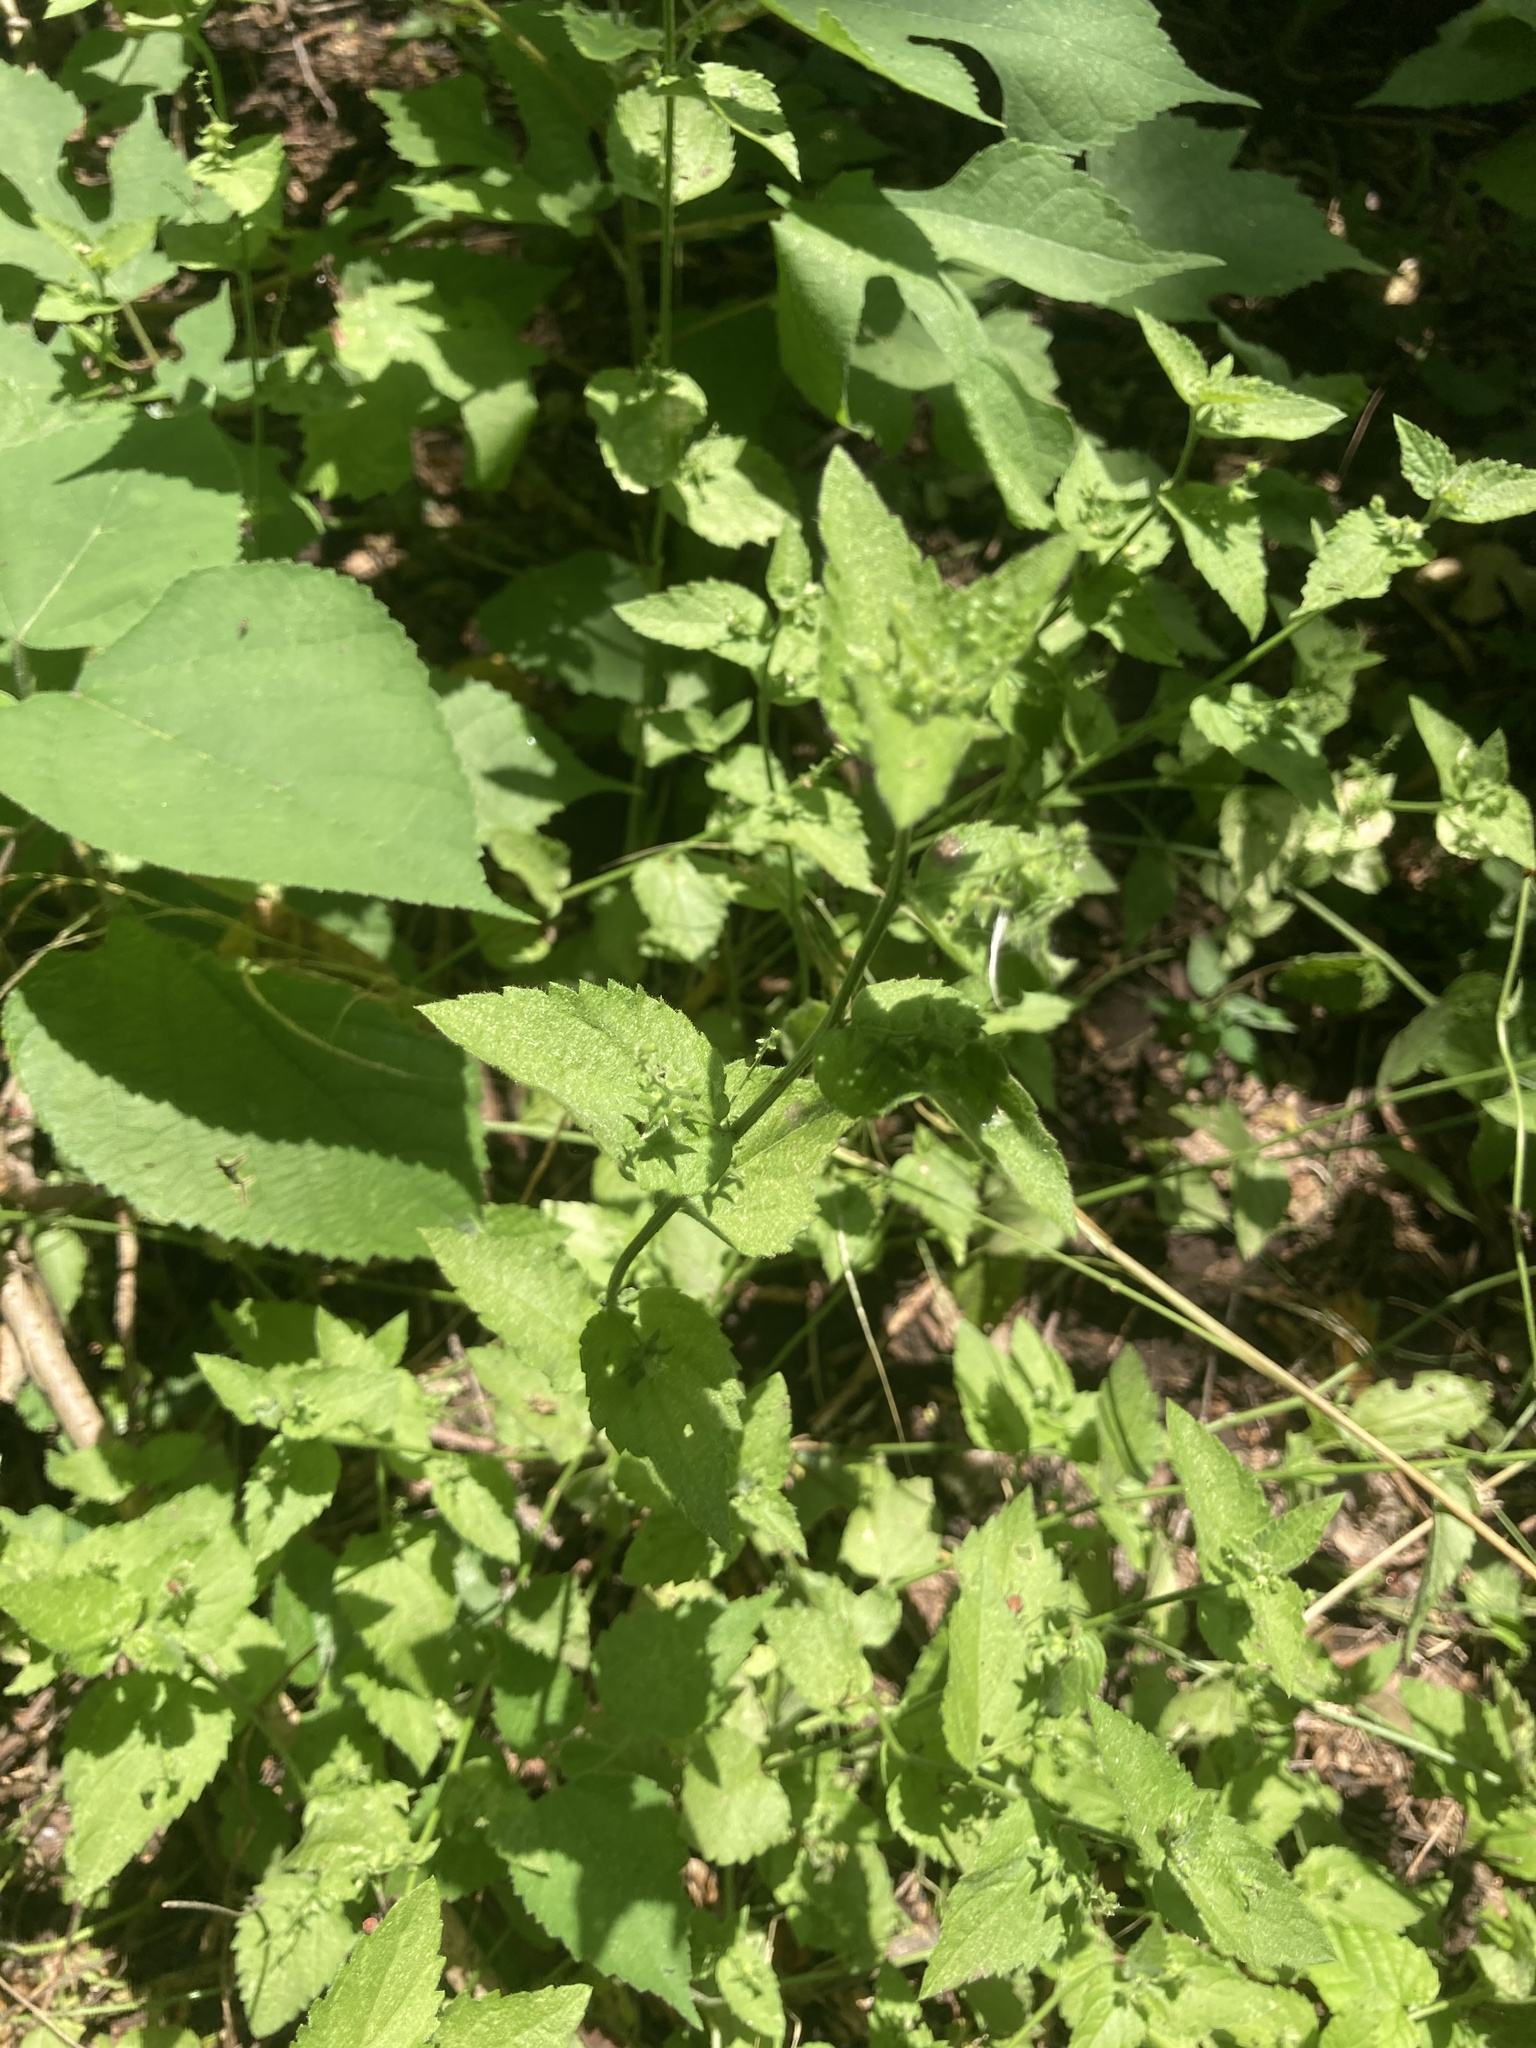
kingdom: Plantae
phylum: Tracheophyta
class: Magnoliopsida
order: Malpighiales
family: Euphorbiaceae
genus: Chiropetalum
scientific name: Chiropetalum griseum
